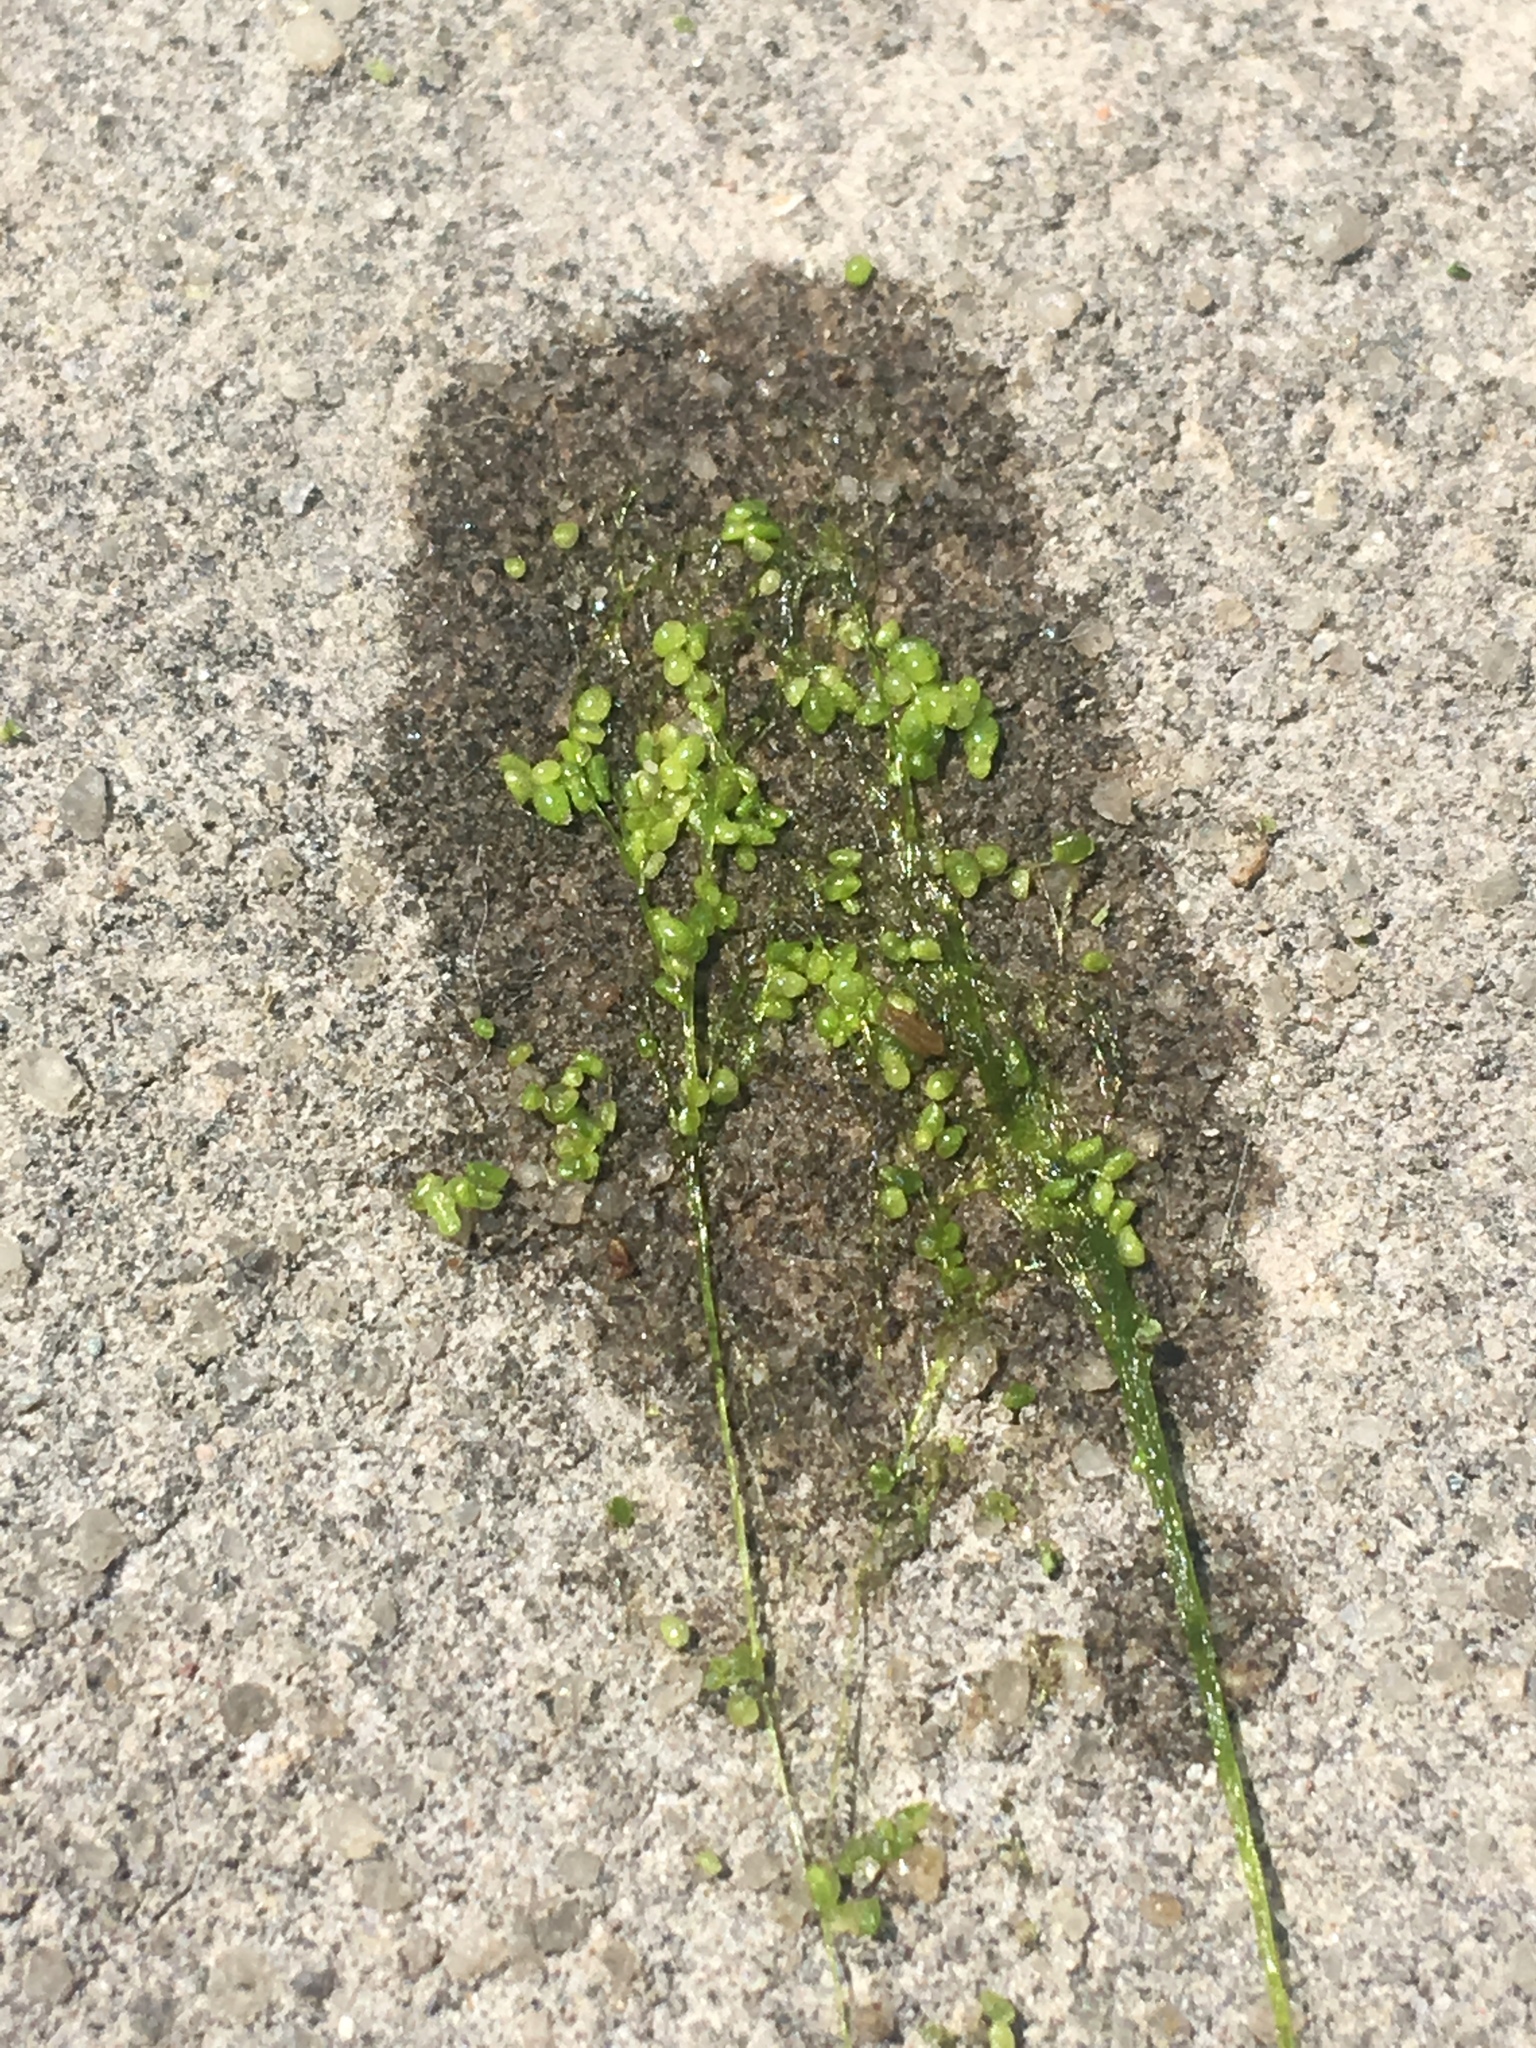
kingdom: Plantae
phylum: Tracheophyta
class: Liliopsida
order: Alismatales
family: Araceae
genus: Lemna
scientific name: Lemna minor
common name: Common duckweed
